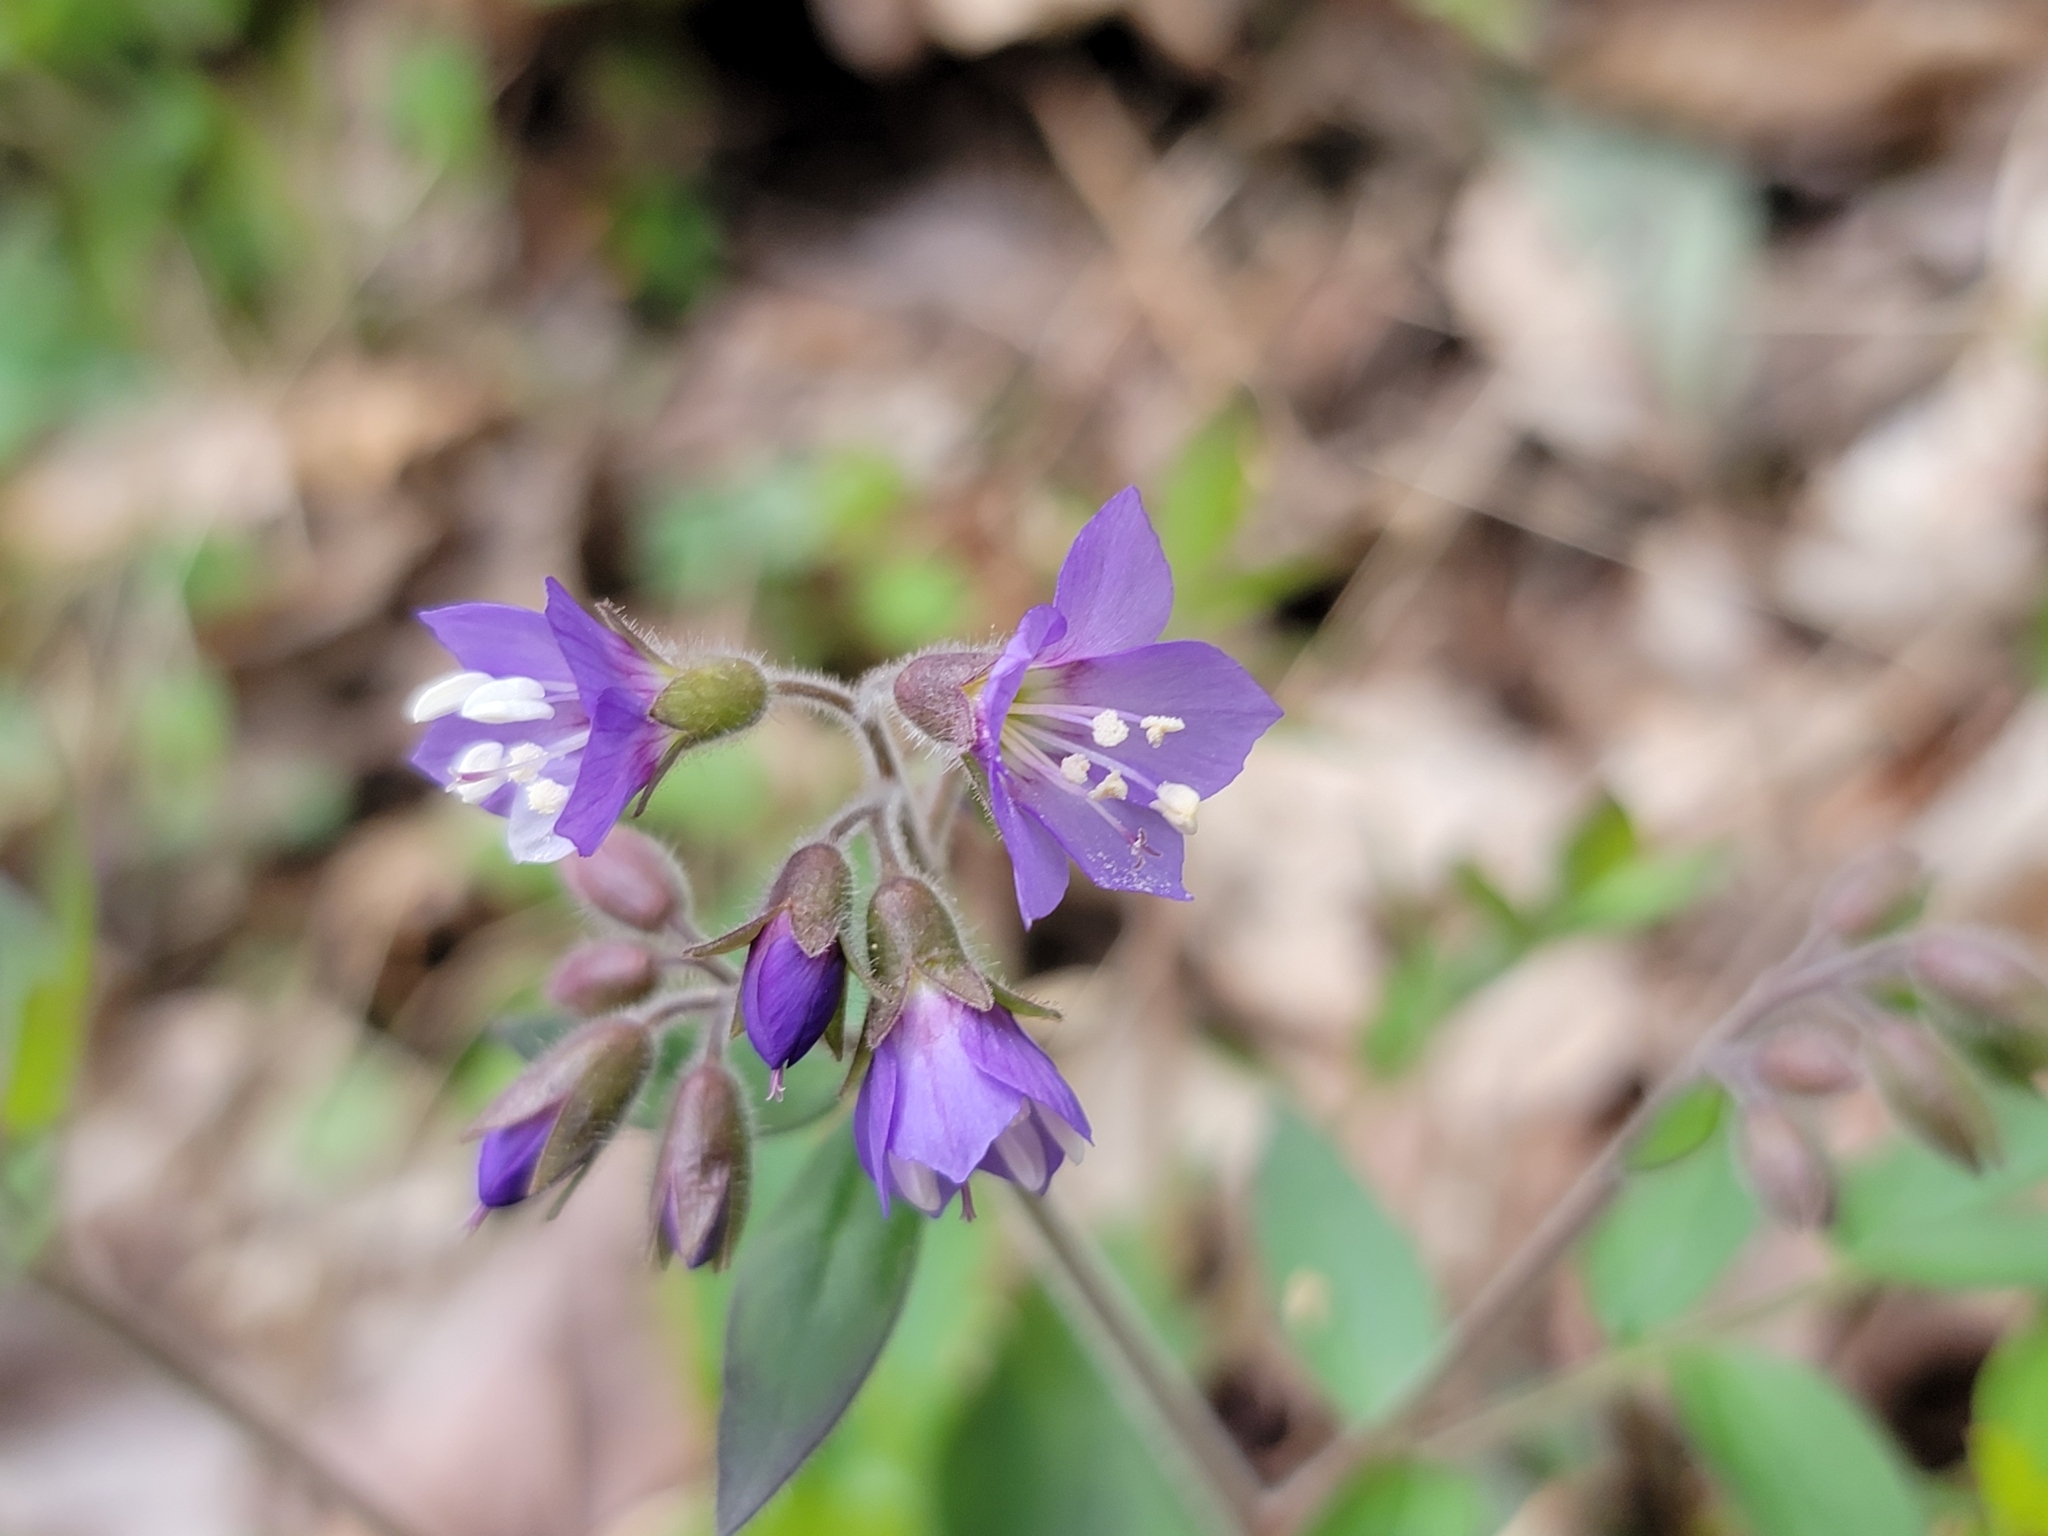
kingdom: Plantae
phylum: Tracheophyta
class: Magnoliopsida
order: Ericales
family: Polemoniaceae
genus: Polemonium
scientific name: Polemonium reptans
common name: Creeping jacob's-ladder
